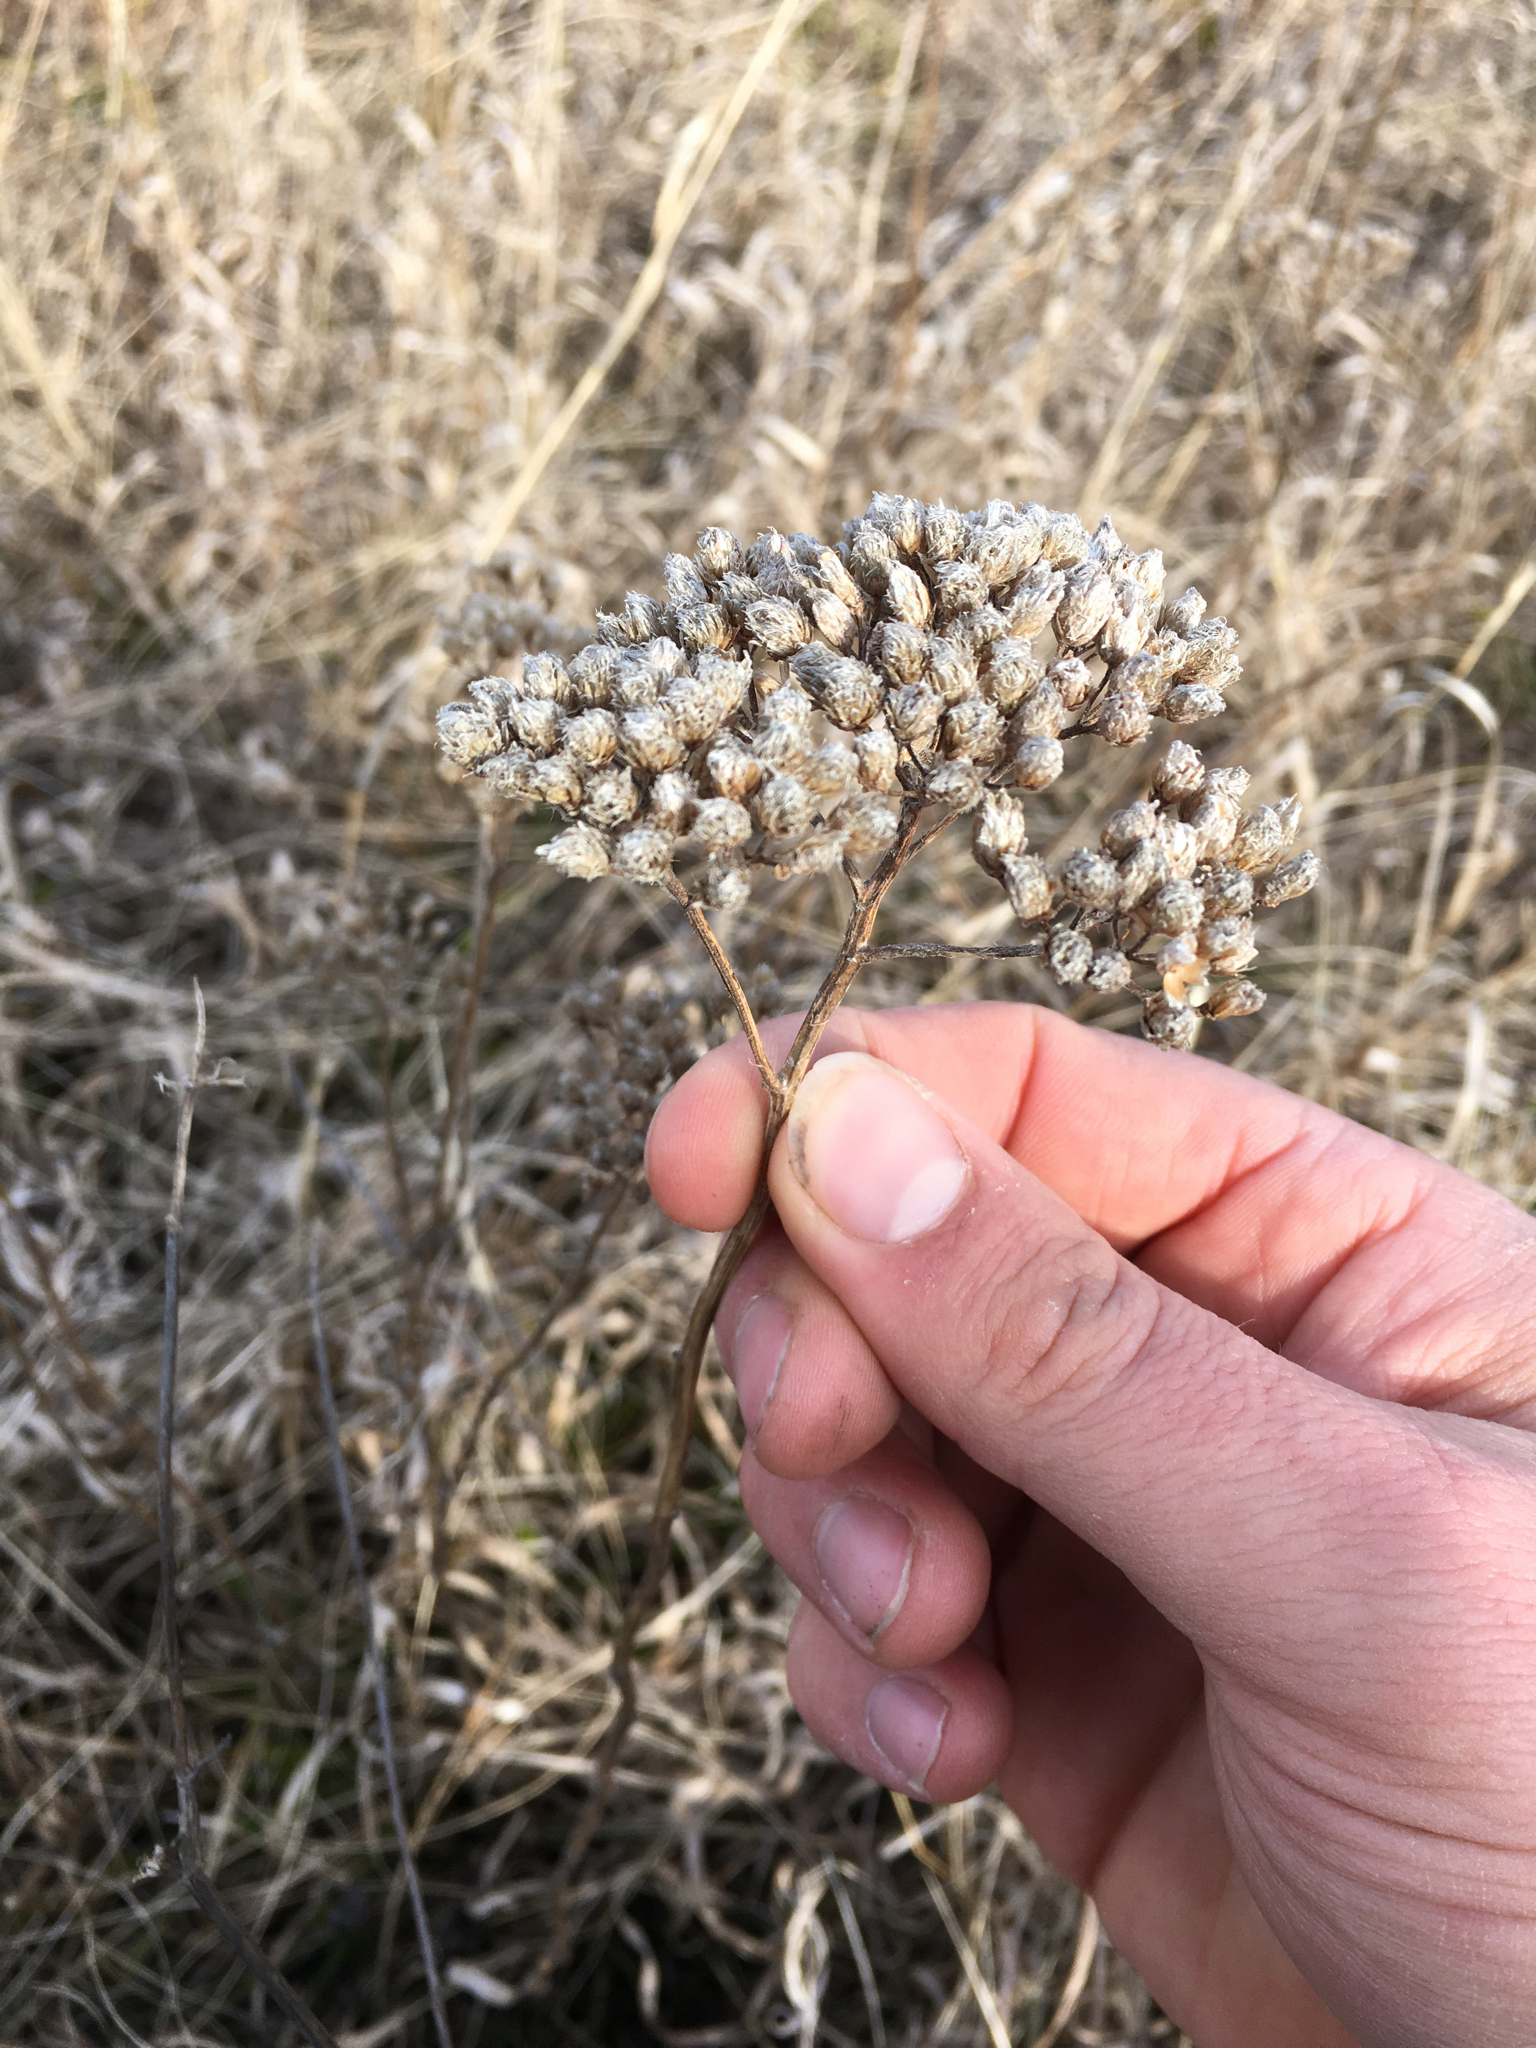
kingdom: Plantae
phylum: Tracheophyta
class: Magnoliopsida
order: Asterales
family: Asteraceae
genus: Achillea
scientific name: Achillea millefolium
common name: Yarrow
